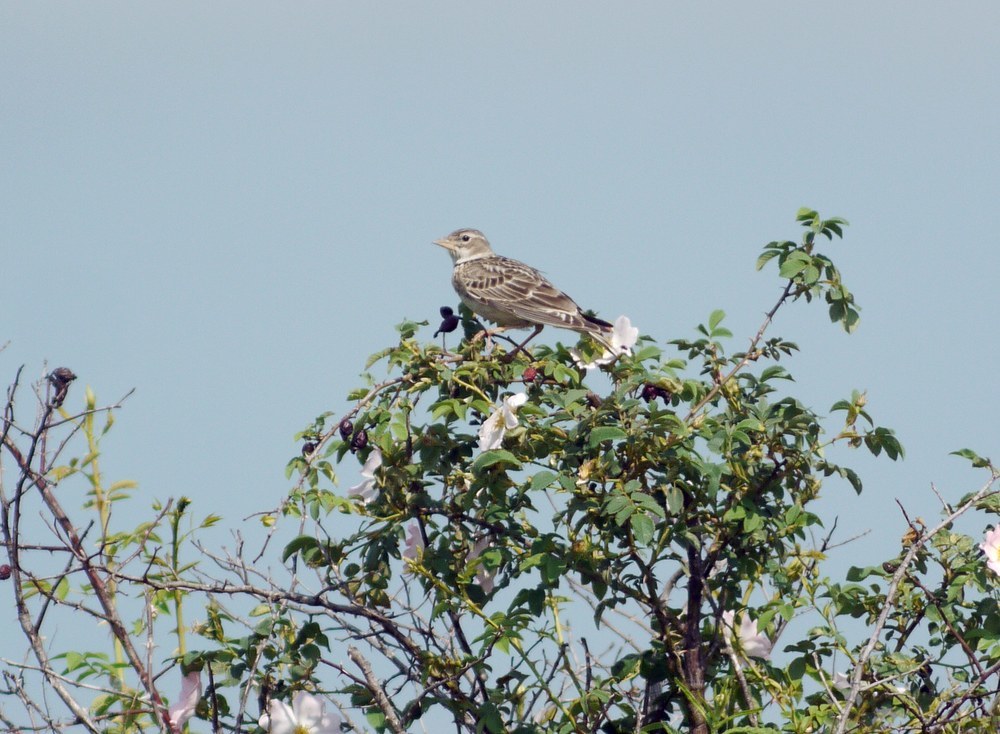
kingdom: Animalia
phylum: Chordata
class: Aves
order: Passeriformes
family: Alaudidae
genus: Melanocorypha
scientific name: Melanocorypha calandra
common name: Calandra lark
